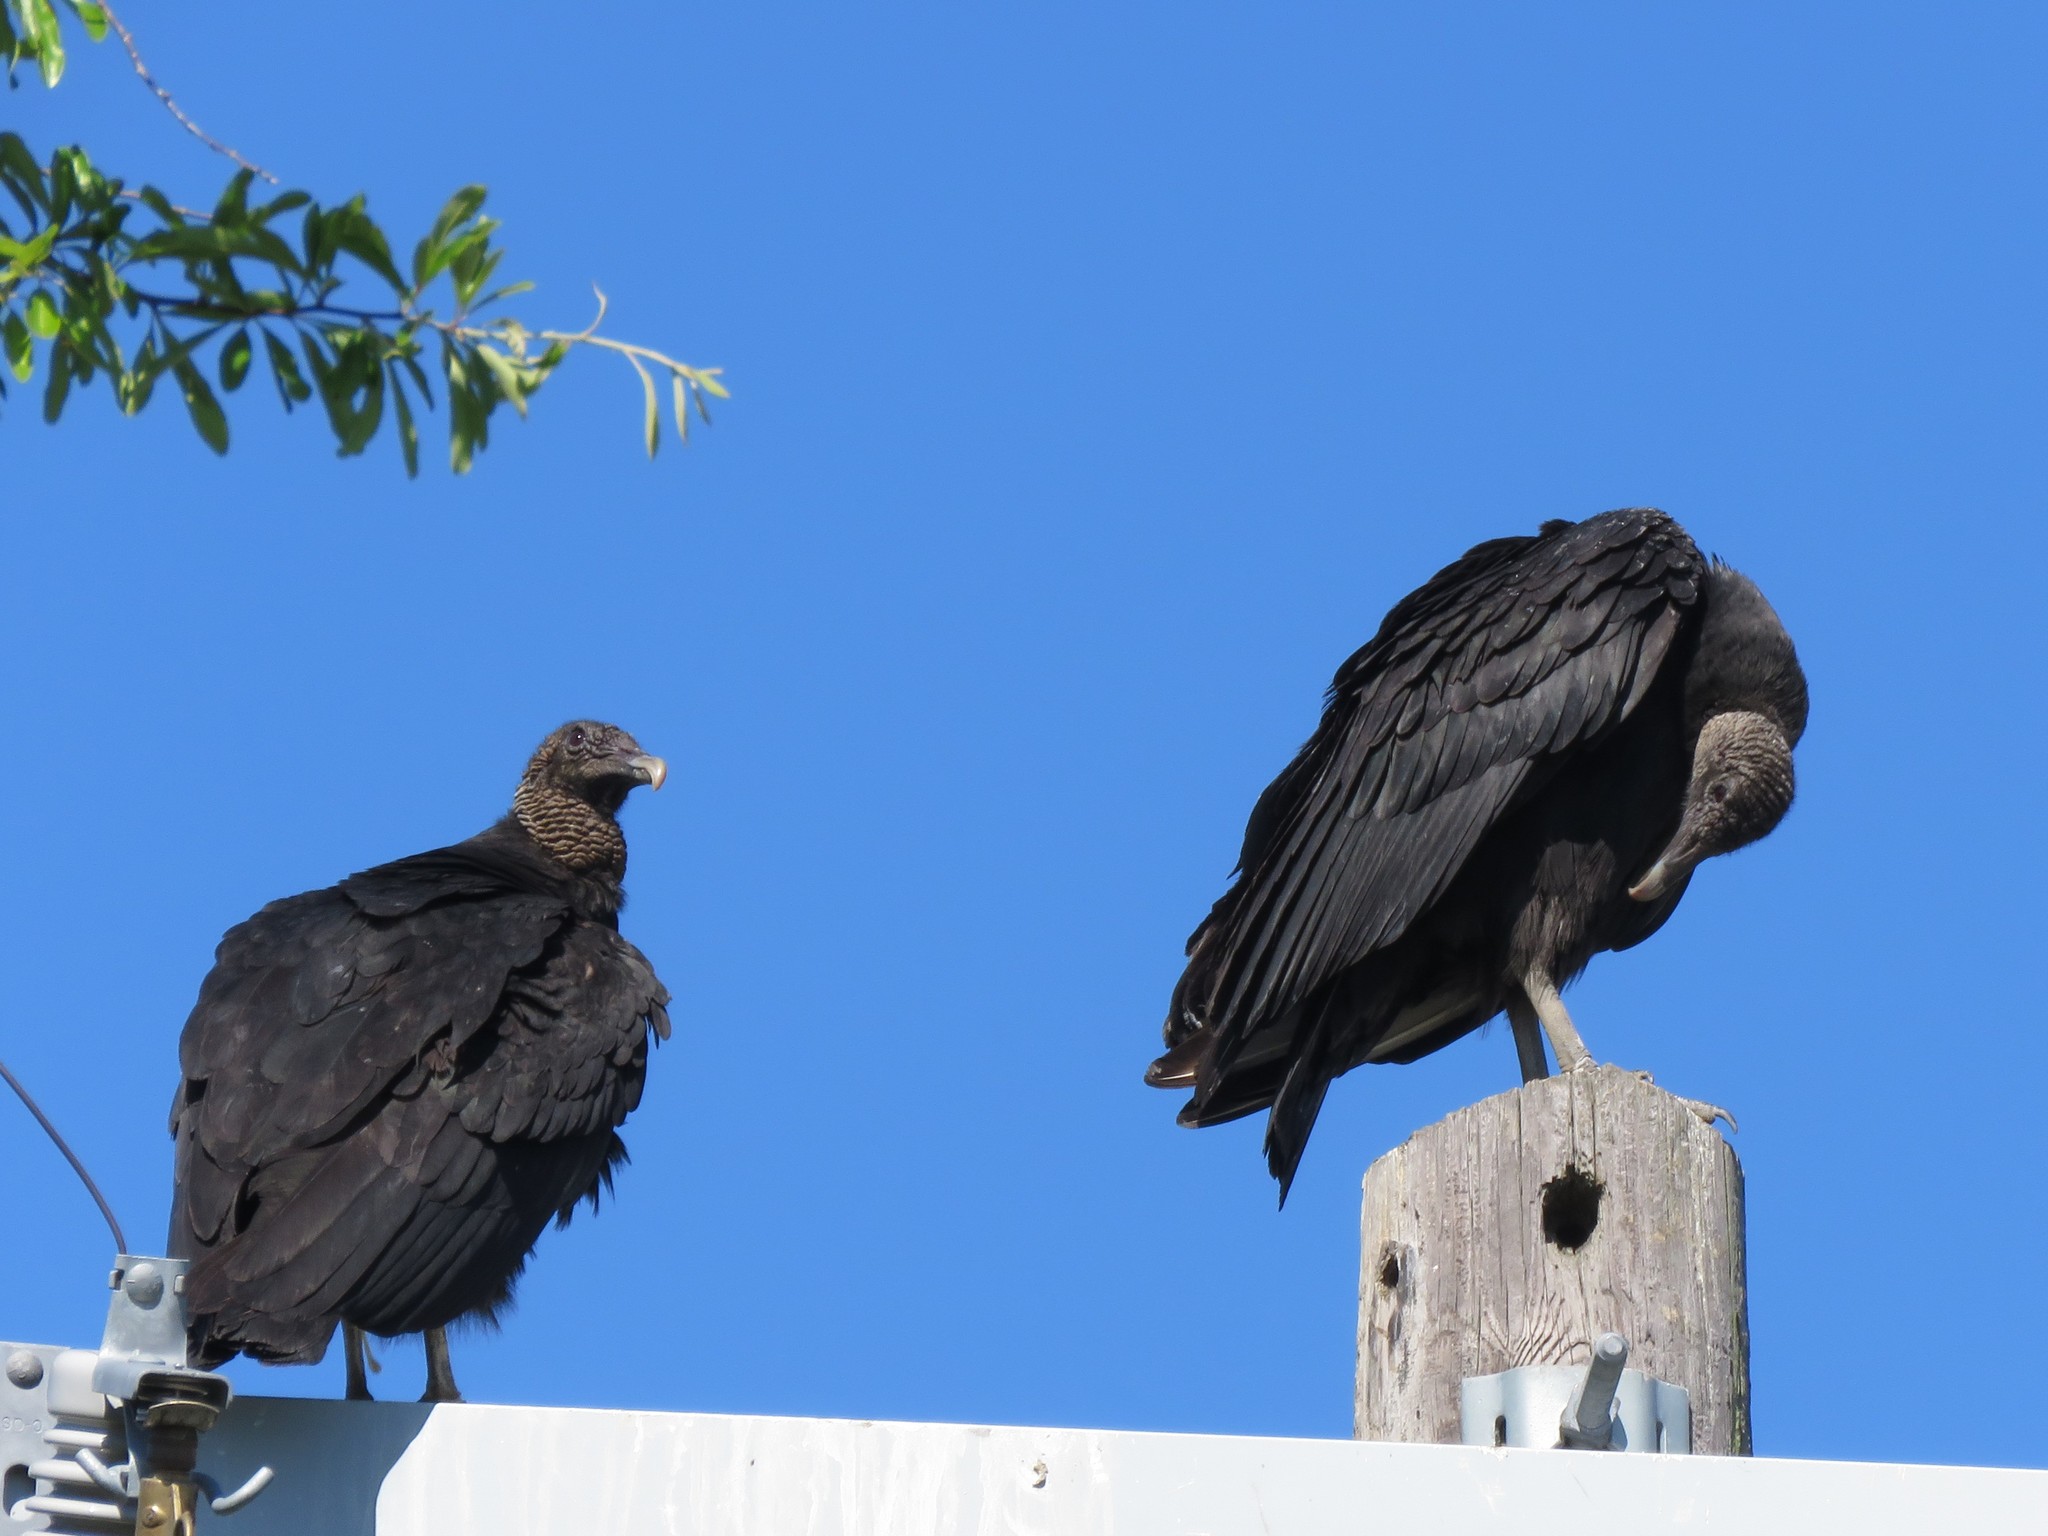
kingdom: Animalia
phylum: Chordata
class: Aves
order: Accipitriformes
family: Cathartidae
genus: Coragyps
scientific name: Coragyps atratus
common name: Black vulture
